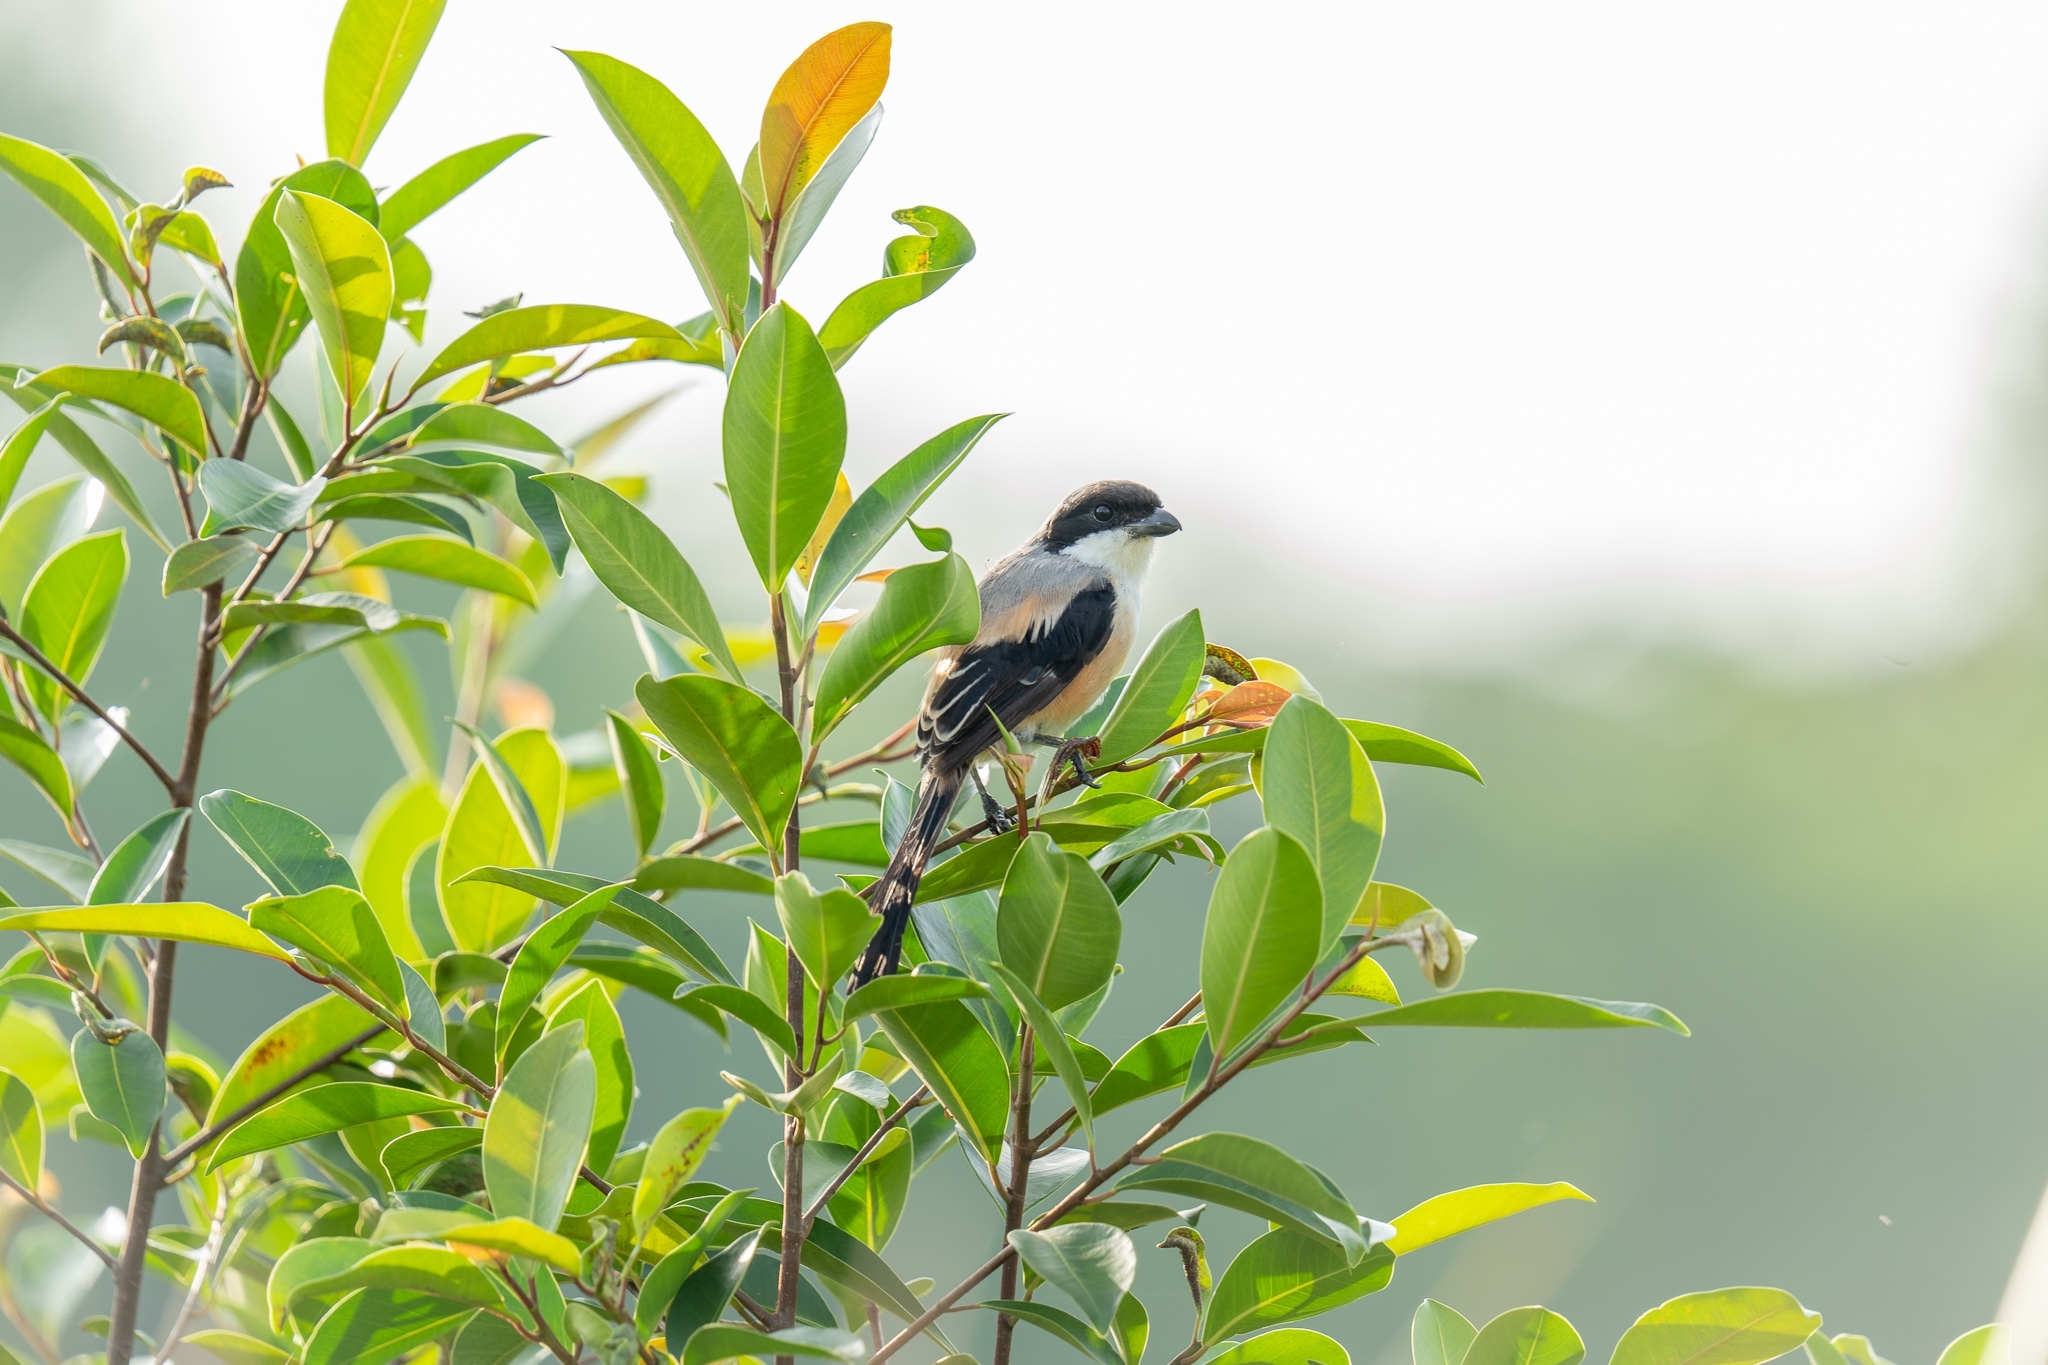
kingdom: Animalia
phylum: Chordata
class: Aves
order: Passeriformes
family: Laniidae
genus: Lanius
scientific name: Lanius schach
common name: Long-tailed shrike
